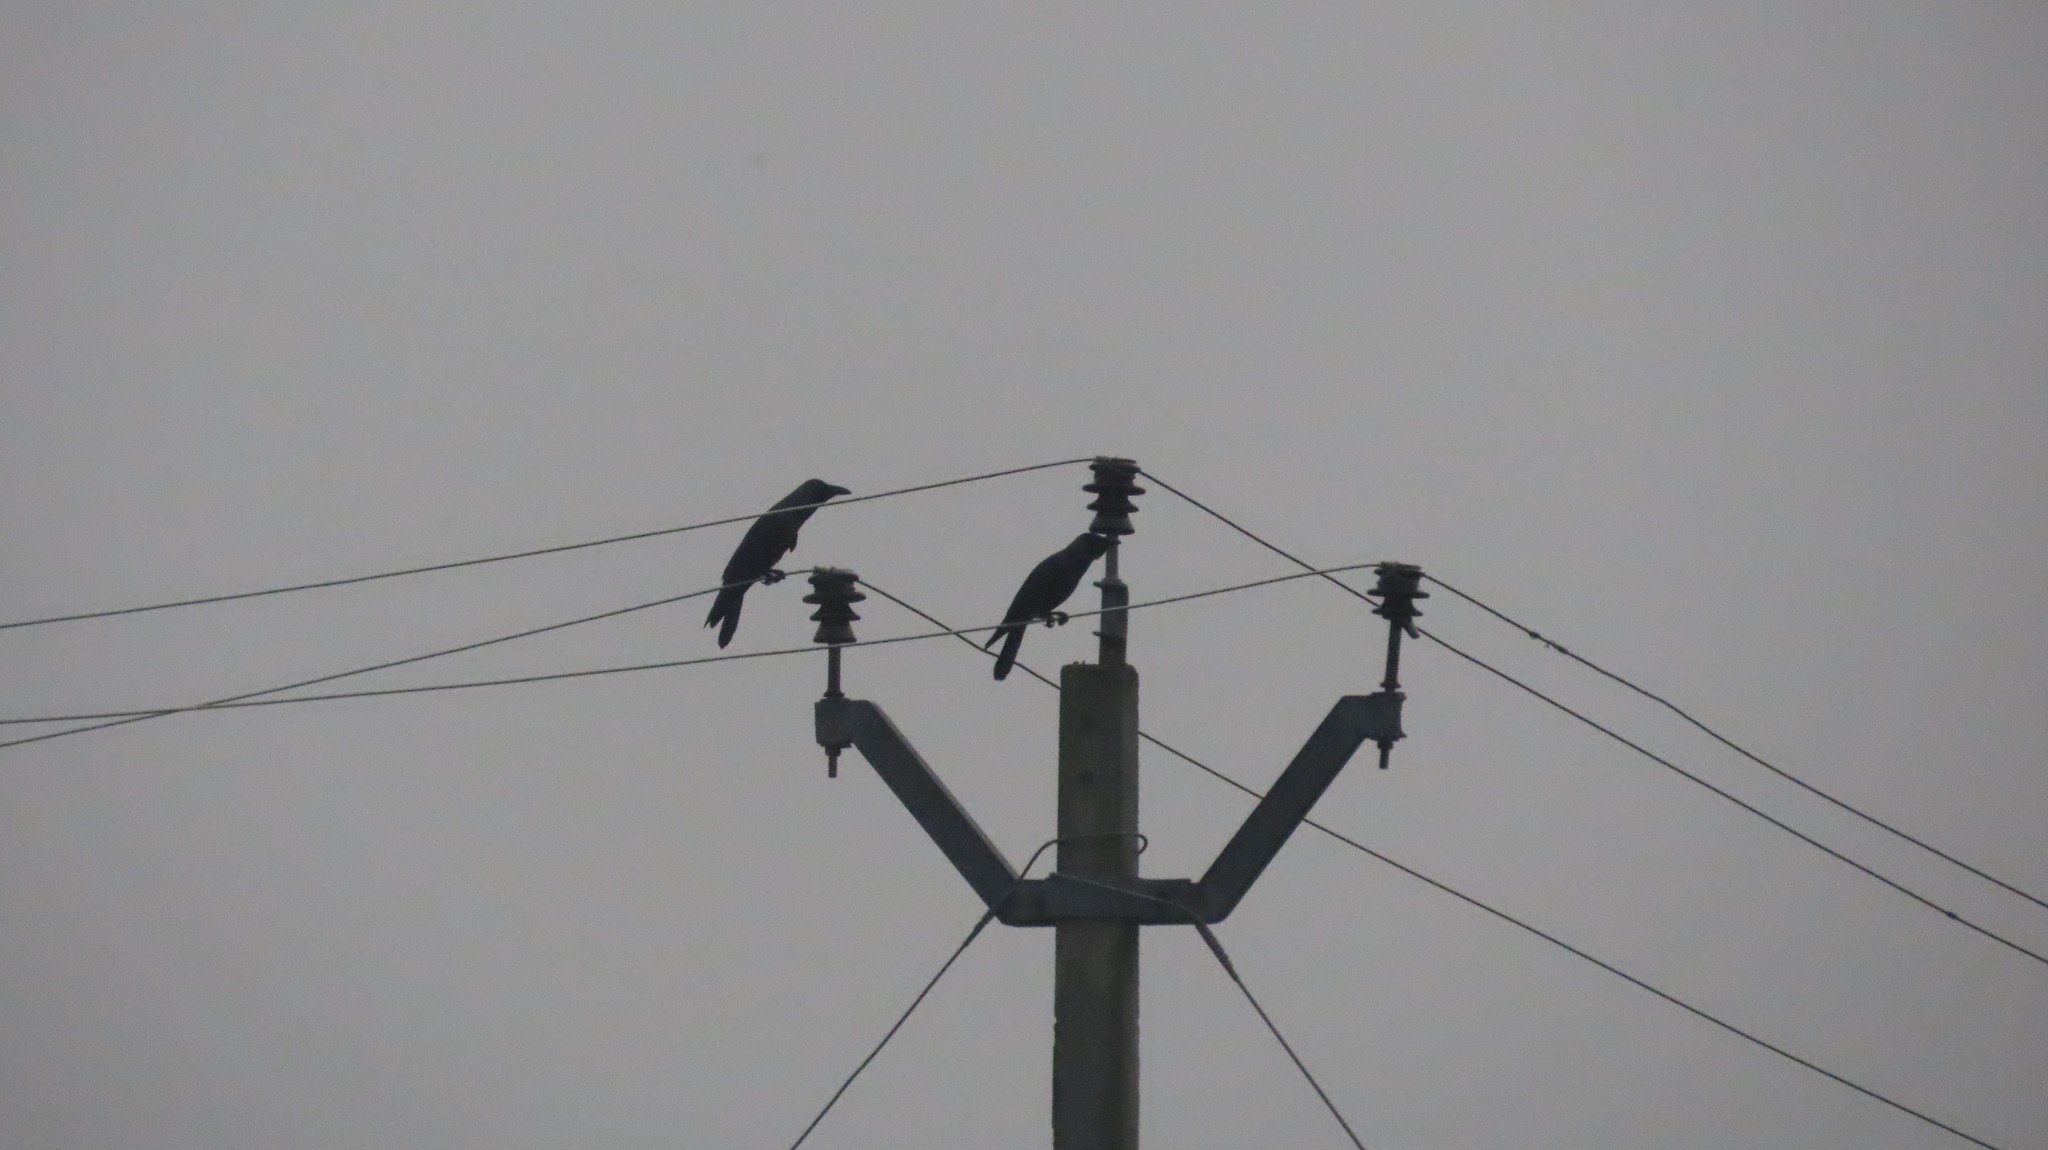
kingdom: Animalia
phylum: Chordata
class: Aves
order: Passeriformes
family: Corvidae
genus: Corvus
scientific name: Corvus splendens
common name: House crow
